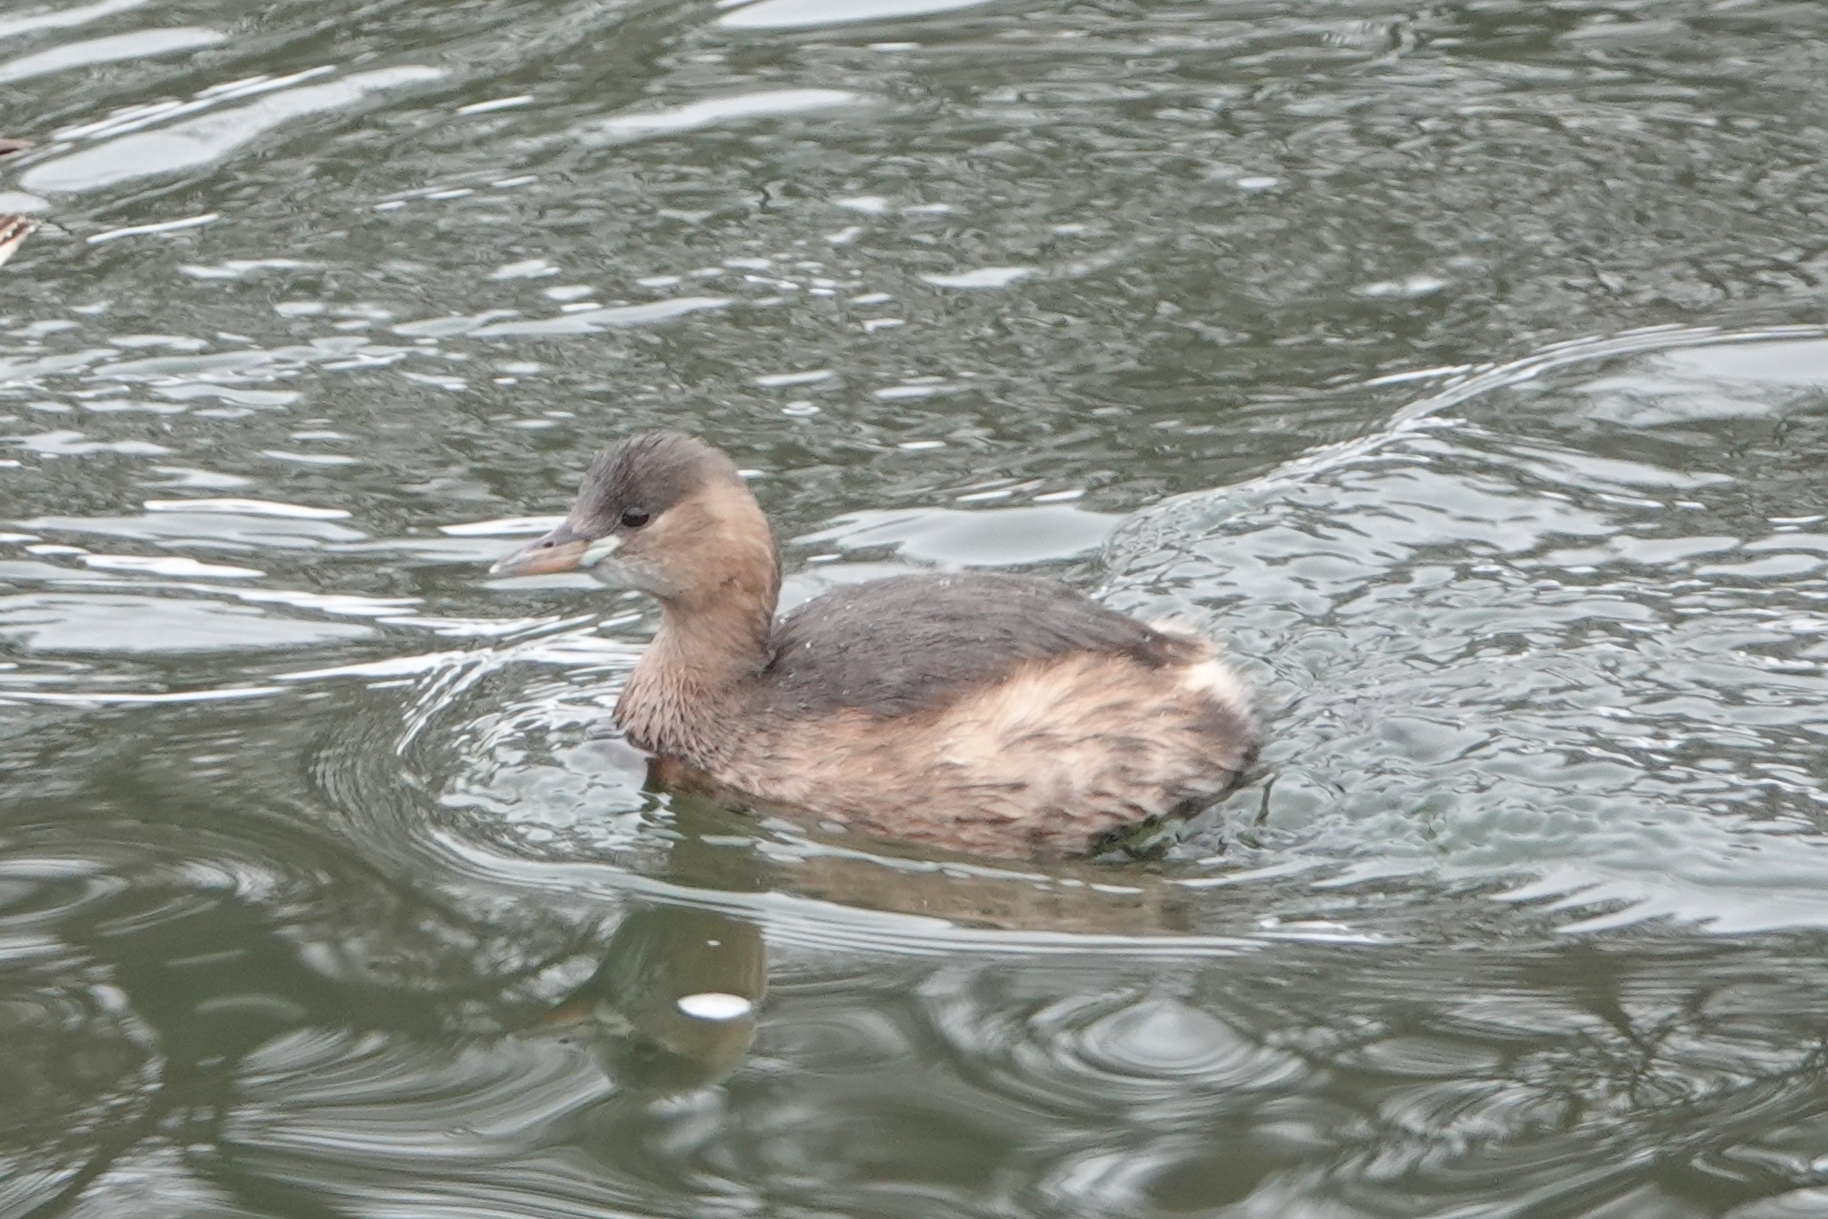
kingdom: Animalia
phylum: Chordata
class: Aves
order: Podicipediformes
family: Podicipedidae
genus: Tachybaptus
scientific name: Tachybaptus ruficollis
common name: Little grebe
